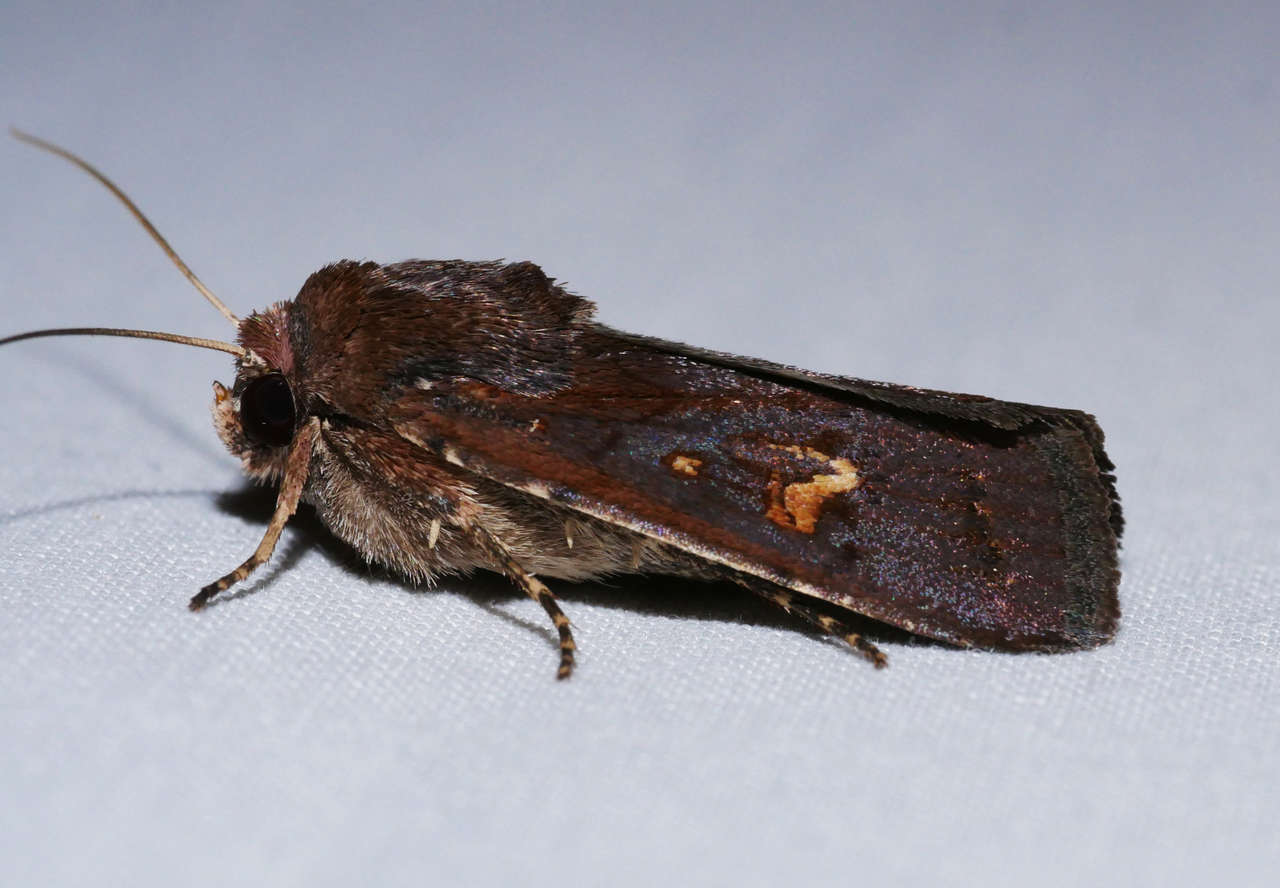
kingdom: Animalia
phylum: Arthropoda
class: Insecta
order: Lepidoptera
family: Noctuidae
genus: Proteuxoa
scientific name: Proteuxoa bistrigula
